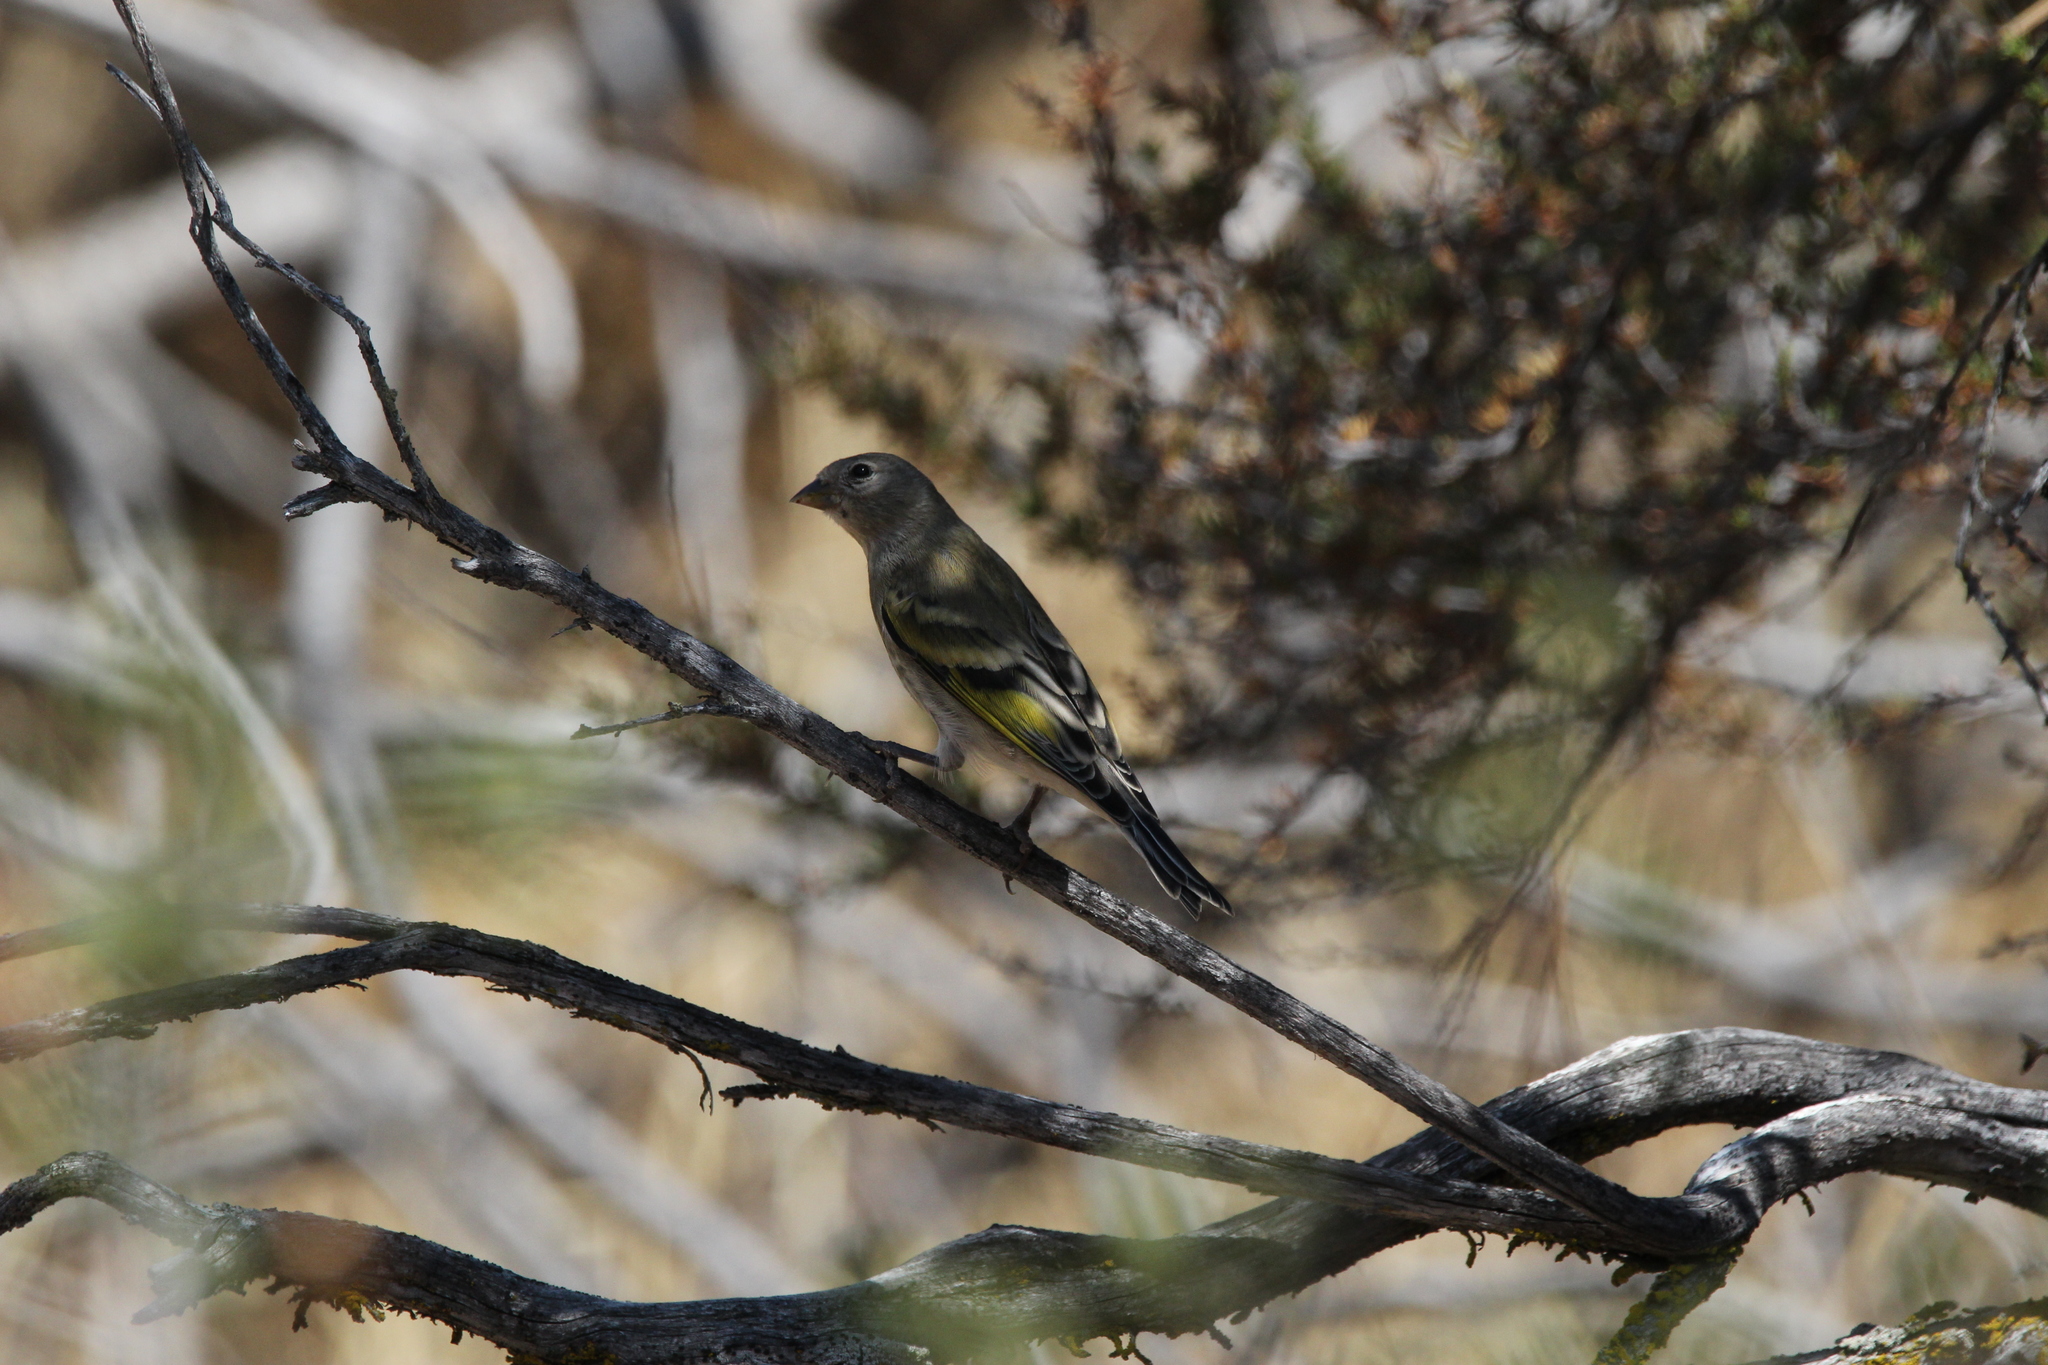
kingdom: Animalia
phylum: Chordata
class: Aves
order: Passeriformes
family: Fringillidae
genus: Spinus
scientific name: Spinus lawrencei
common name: Lawrence's goldfinch
